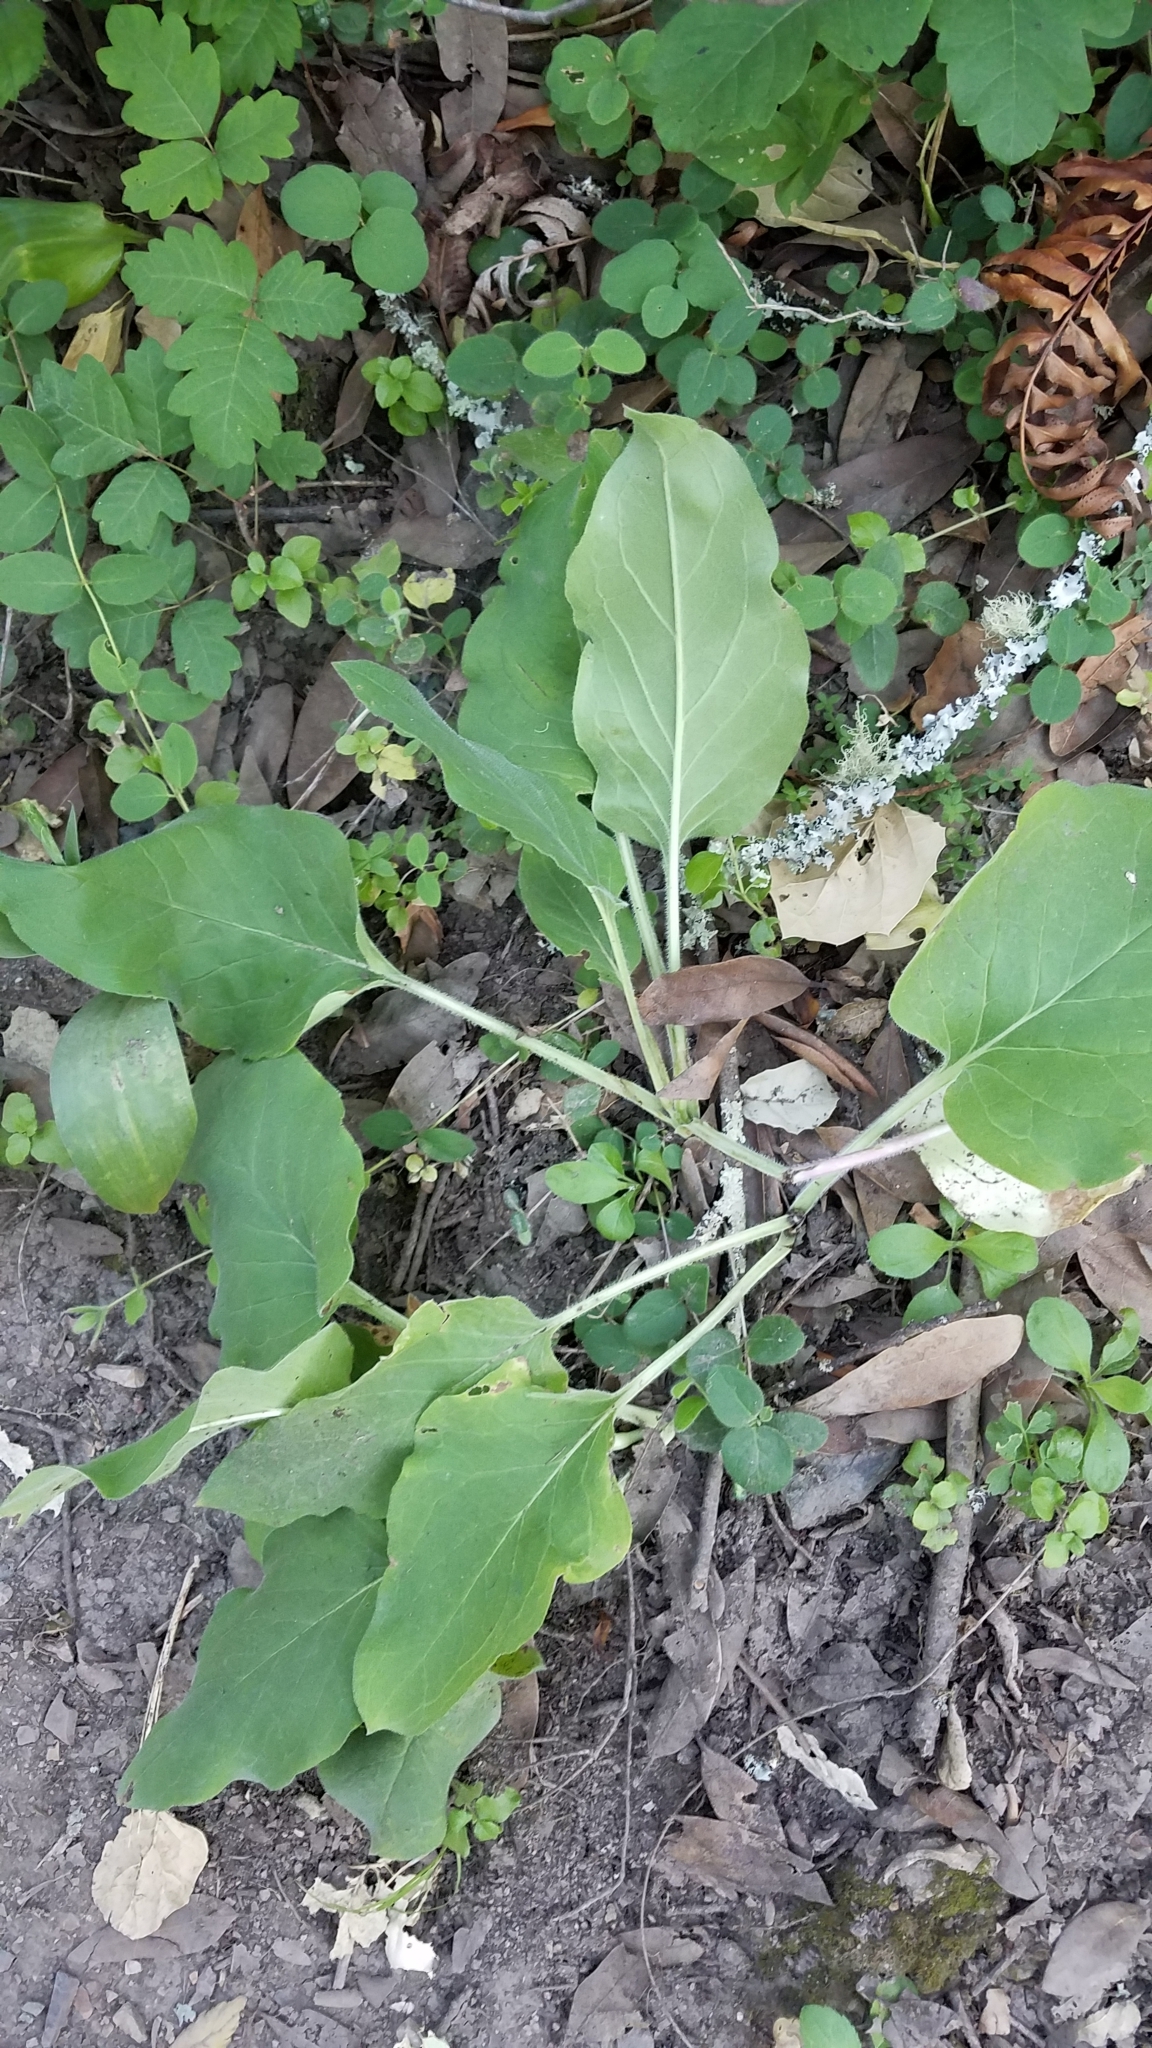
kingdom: Plantae
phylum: Tracheophyta
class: Magnoliopsida
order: Boraginales
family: Boraginaceae
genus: Adelinia
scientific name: Adelinia grande
